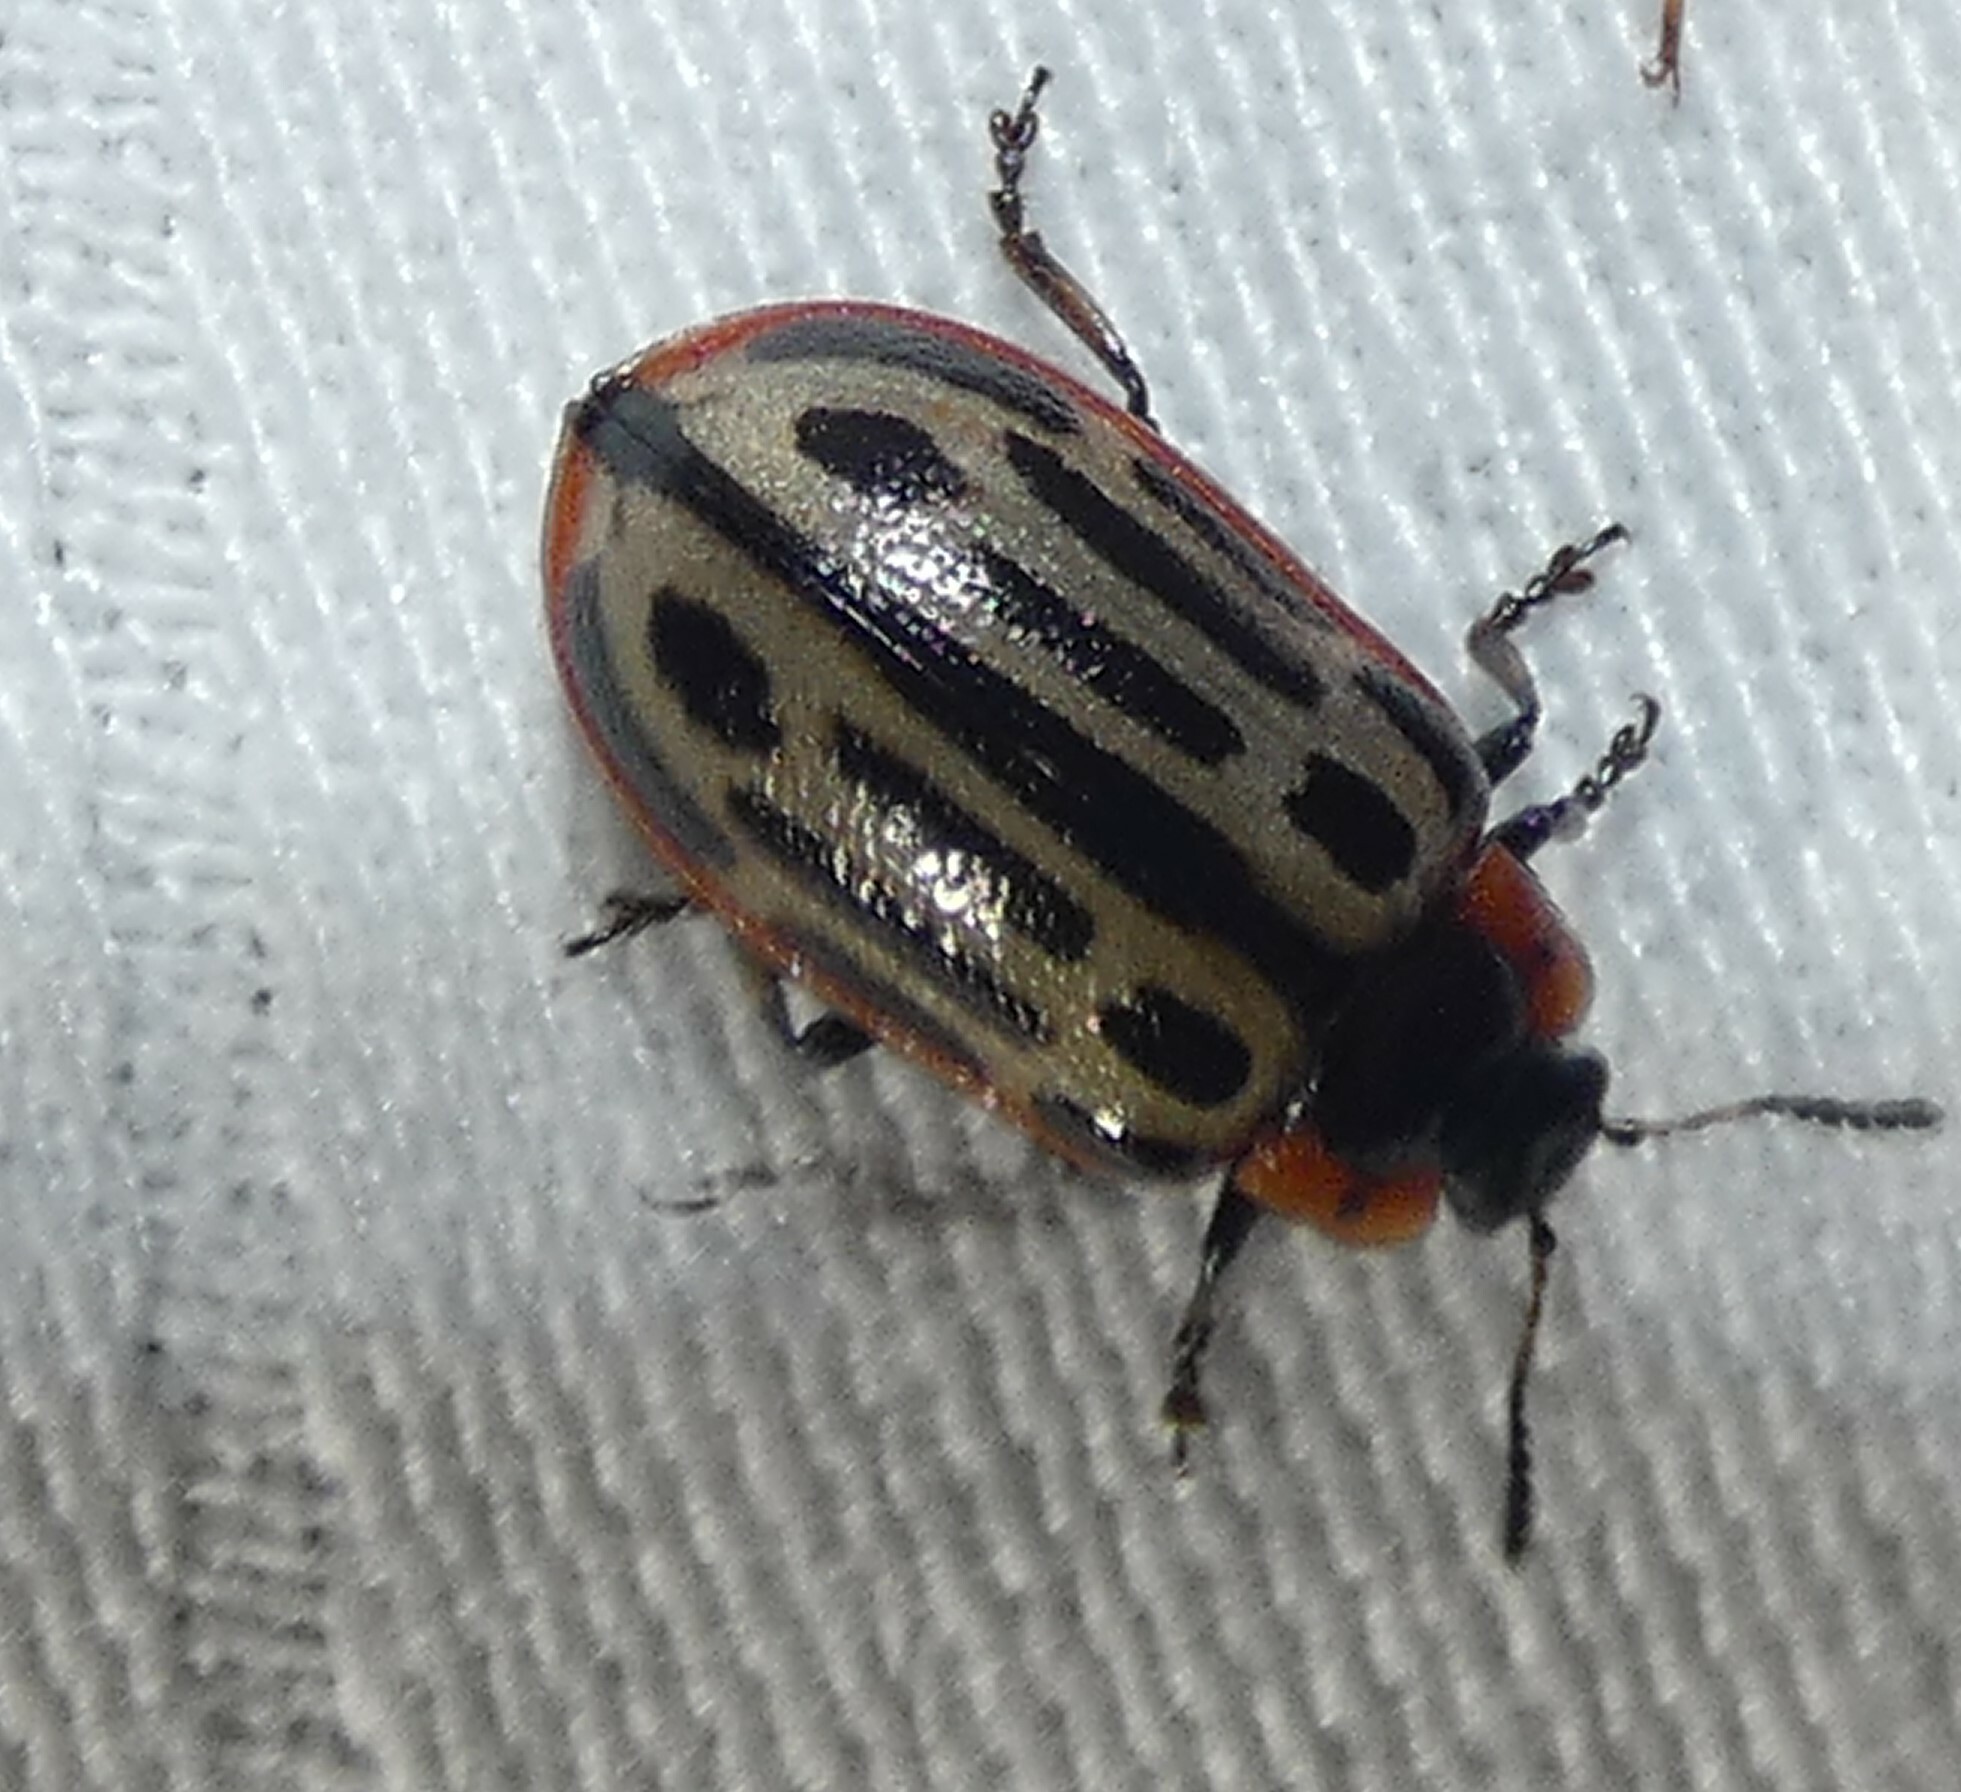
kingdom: Animalia
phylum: Arthropoda
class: Insecta
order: Coleoptera
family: Chrysomelidae
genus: Aethiopocassis
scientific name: Aethiopocassis scripta
